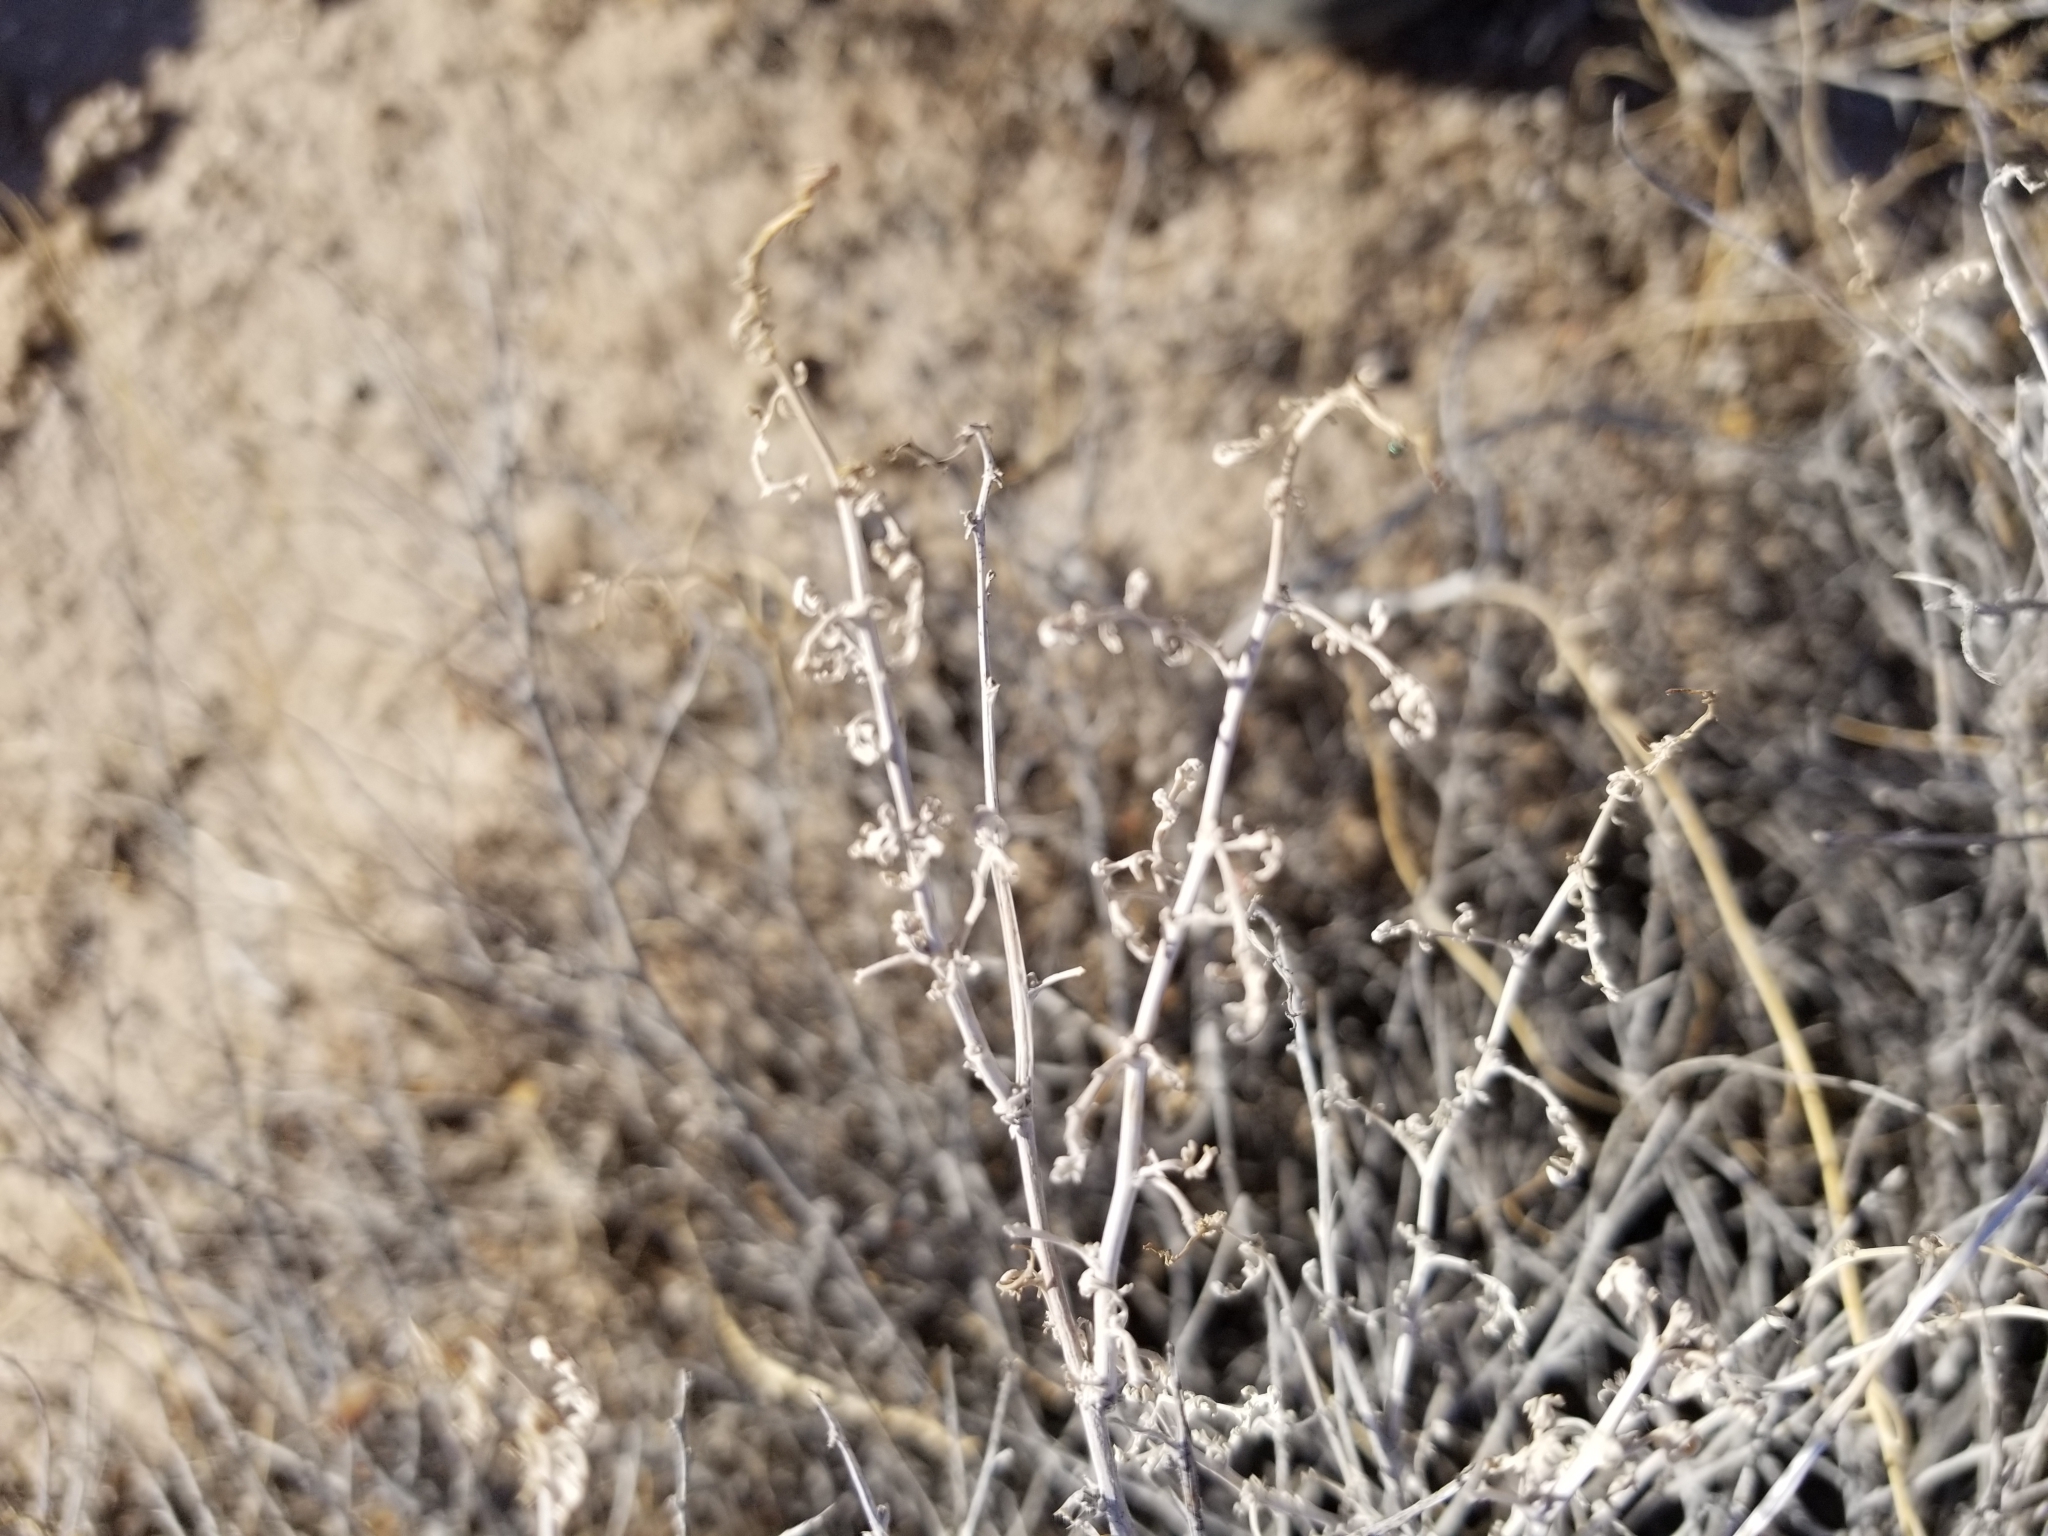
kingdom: Plantae
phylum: Tracheophyta
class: Magnoliopsida
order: Asterales
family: Asteraceae
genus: Ambrosia
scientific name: Ambrosia dumosa
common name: Bur-sage
